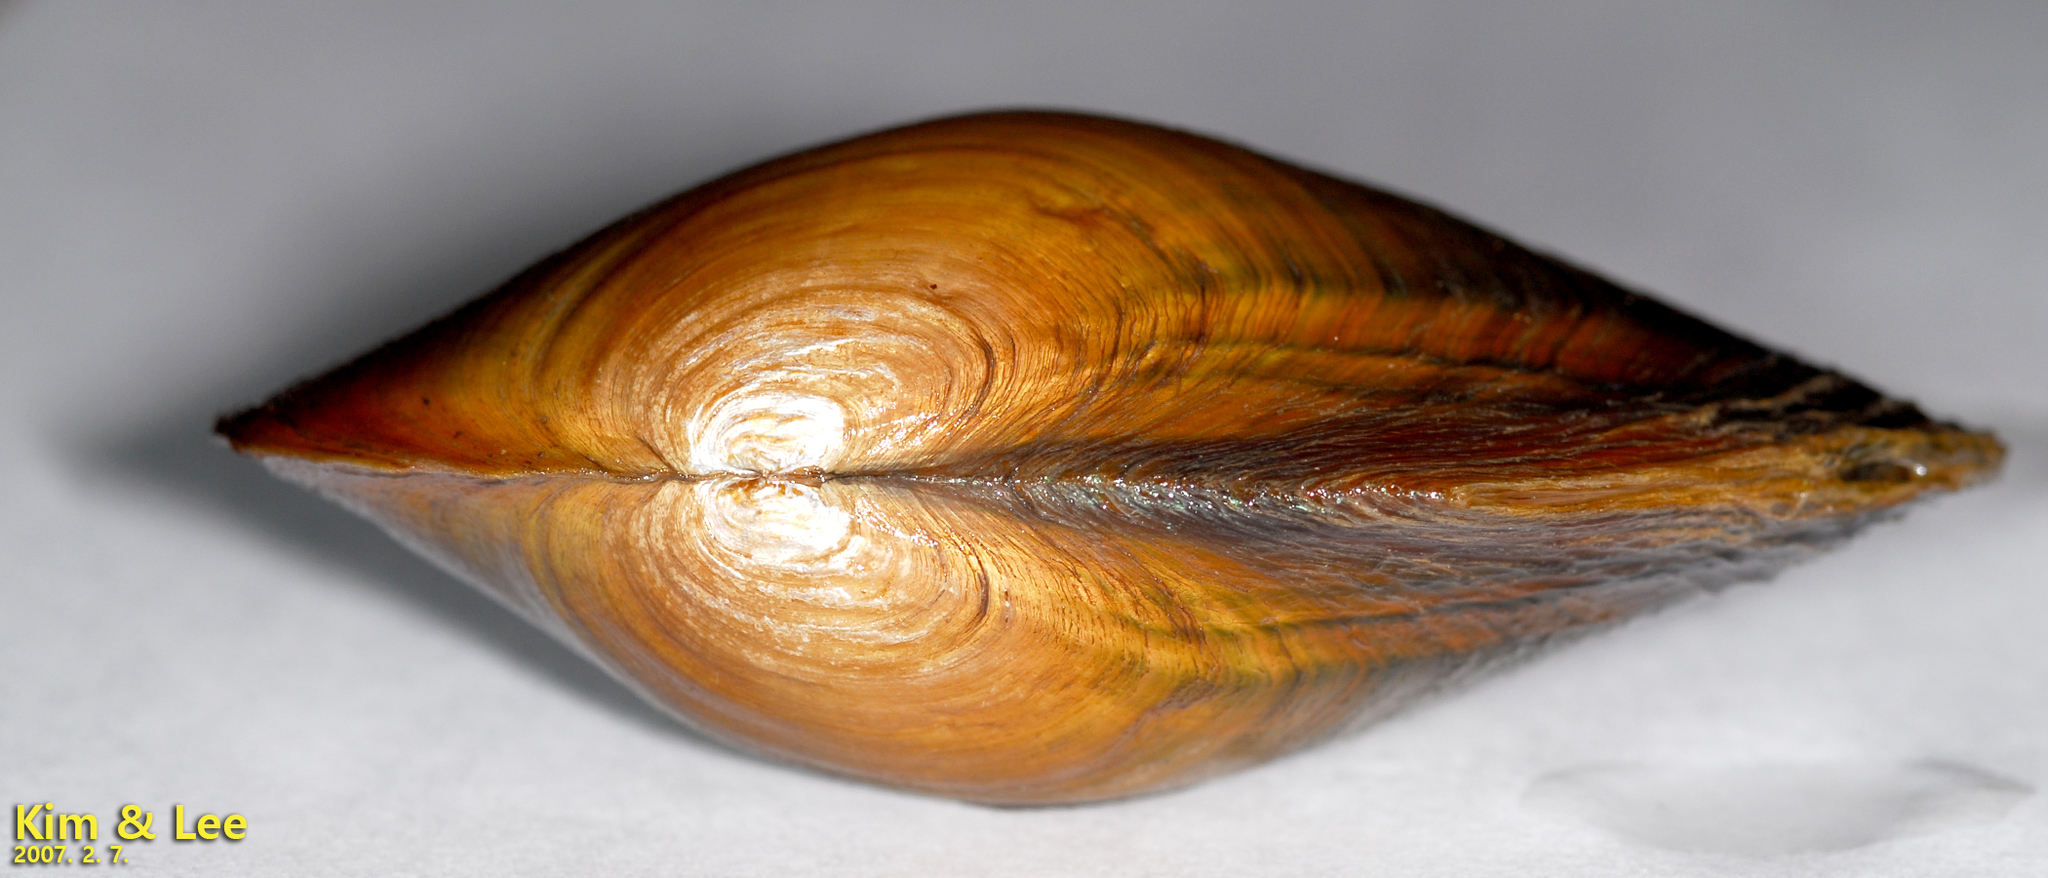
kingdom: Animalia
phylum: Mollusca
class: Bivalvia
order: Unionida
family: Unionidae
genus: Sinanodonta
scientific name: Sinanodonta lauta
